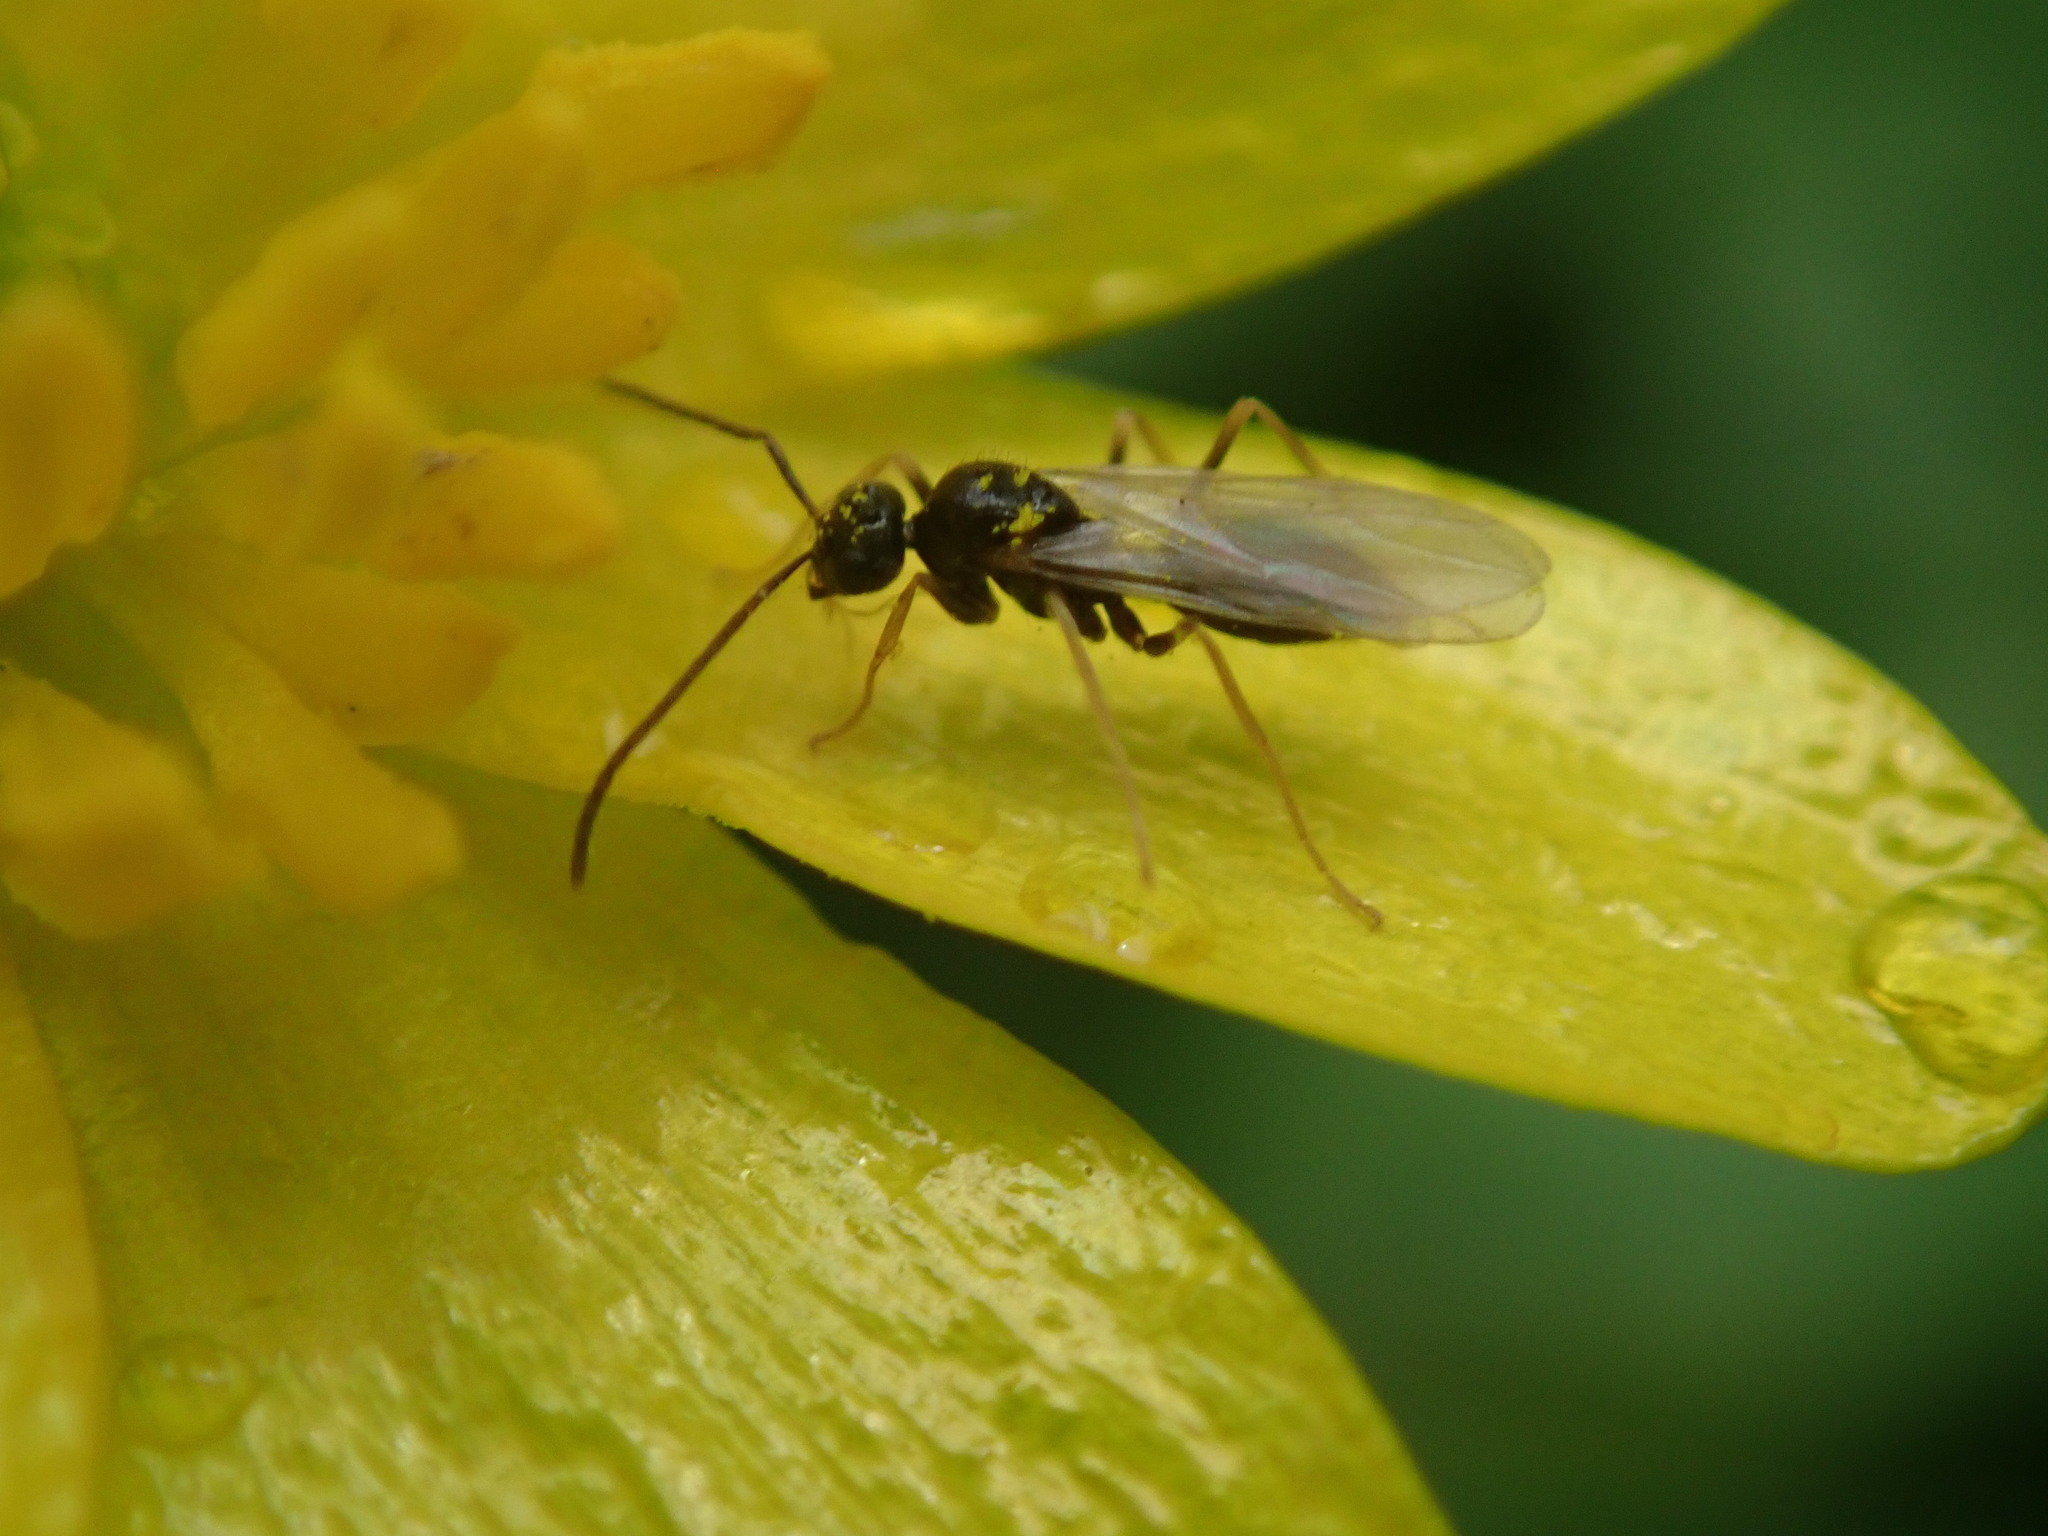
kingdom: Animalia
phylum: Arthropoda
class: Insecta
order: Hymenoptera
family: Formicidae
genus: Prenolepis
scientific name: Prenolepis imparis
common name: Small honey ant
